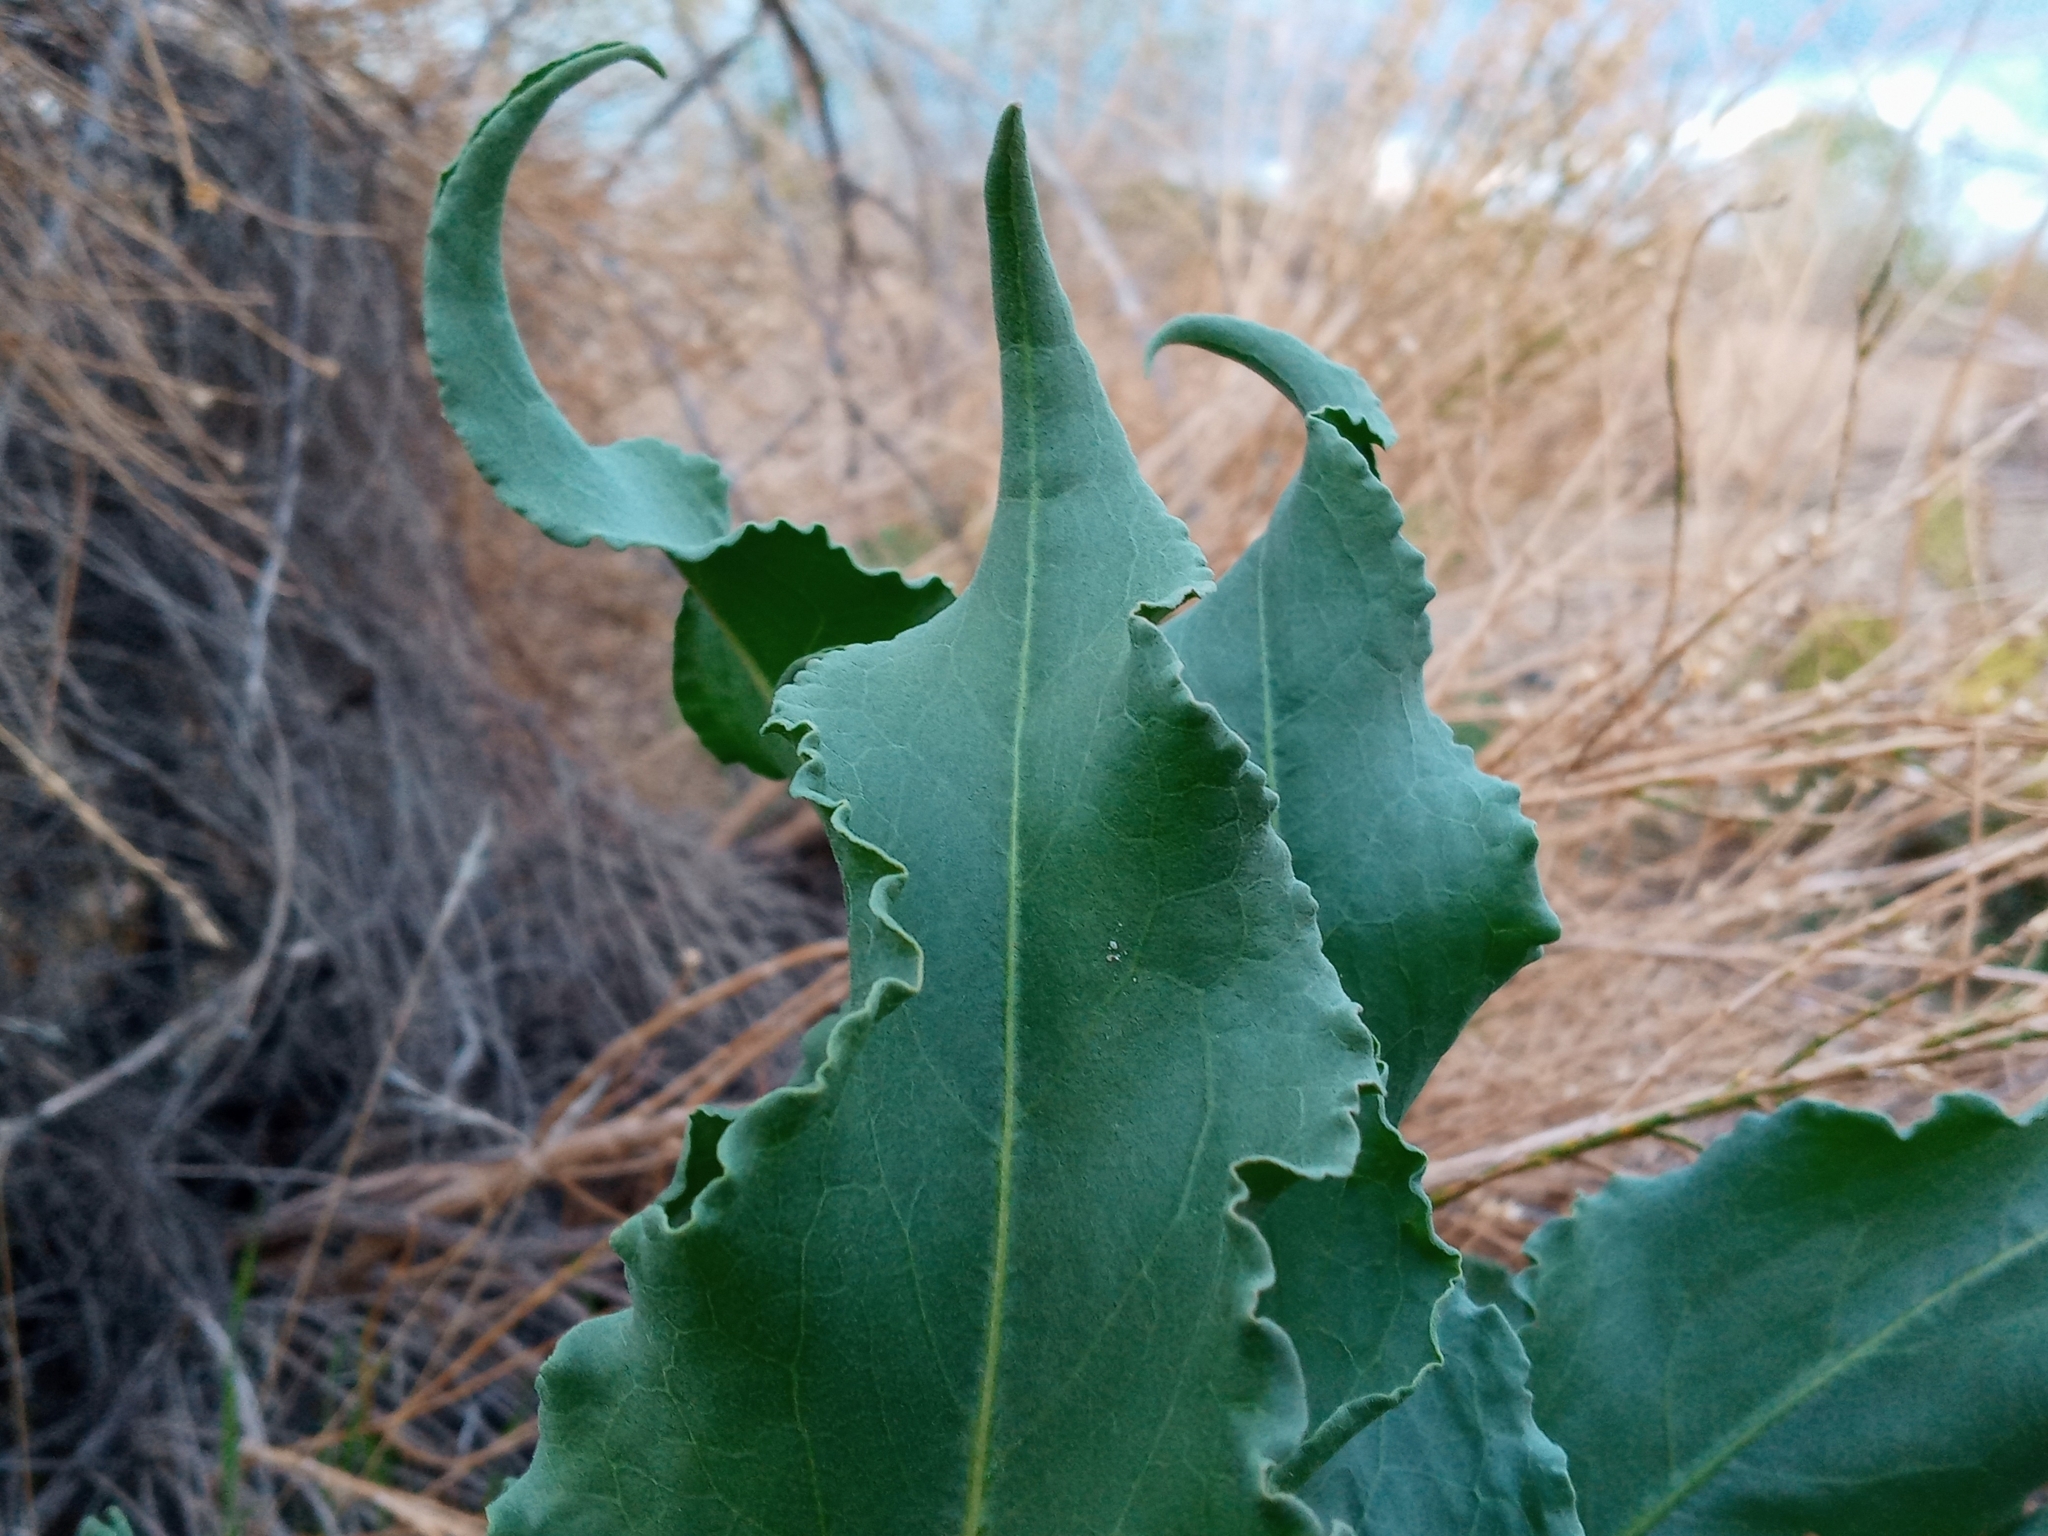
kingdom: Plantae
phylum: Tracheophyta
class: Magnoliopsida
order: Caryophyllales
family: Polygonaceae
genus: Rumex
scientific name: Rumex hymenosepalus
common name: Ganagra
